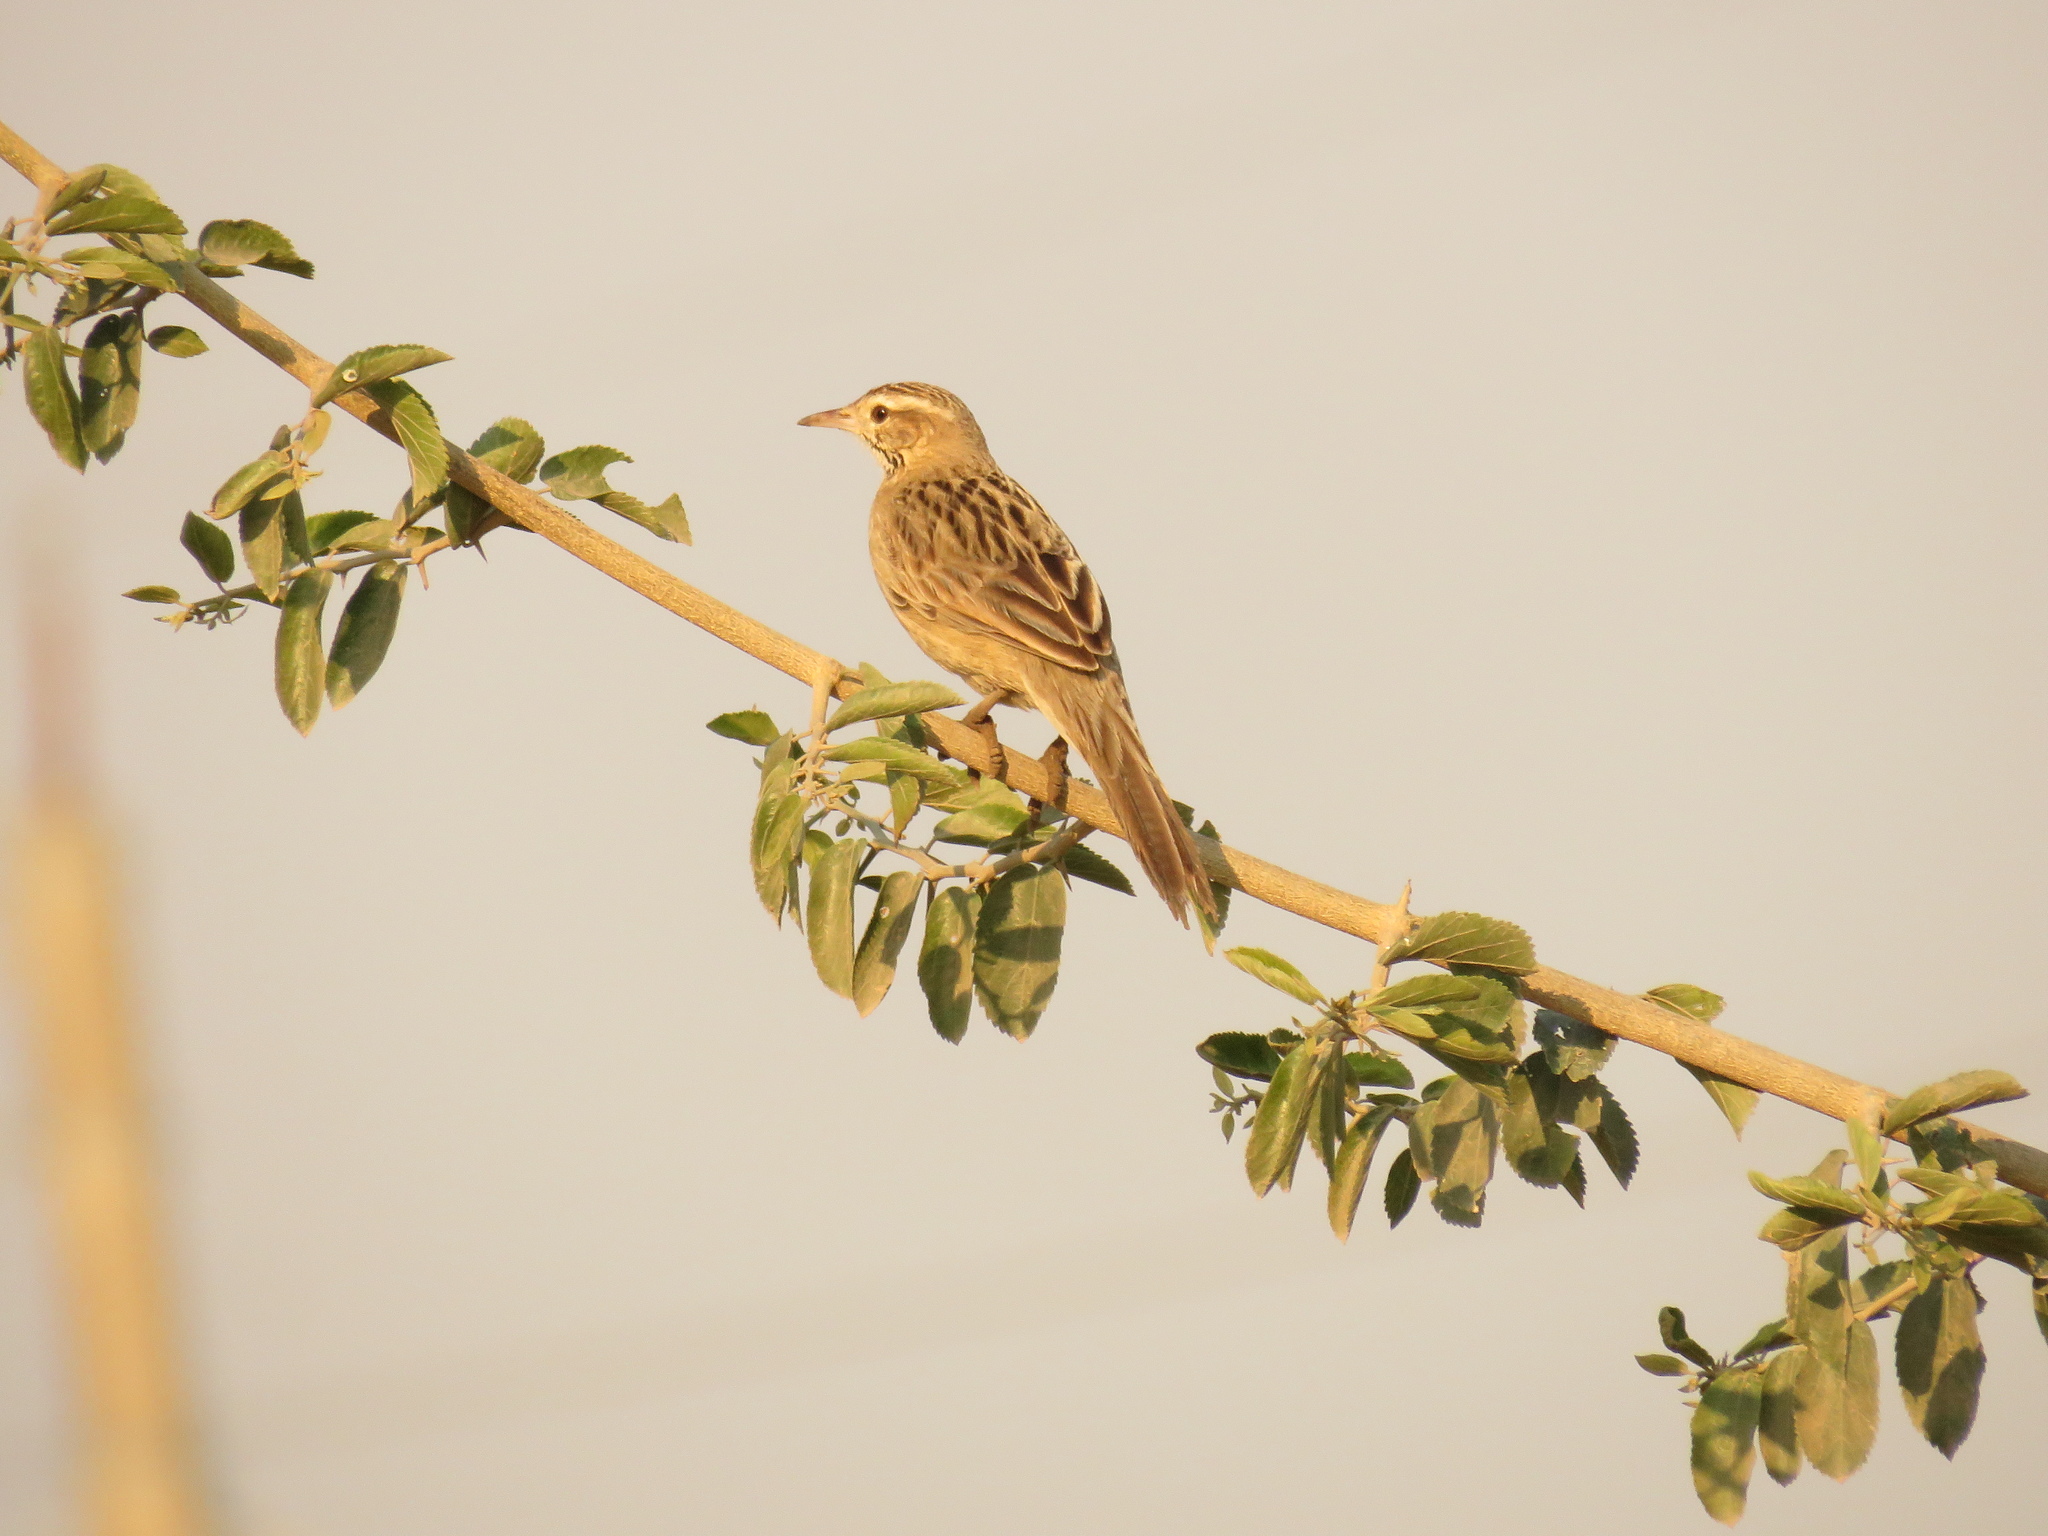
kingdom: Animalia
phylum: Chordata
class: Aves
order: Passeriformes
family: Furnariidae
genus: Anumbius
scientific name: Anumbius annumbi
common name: Firewood-gatherer
